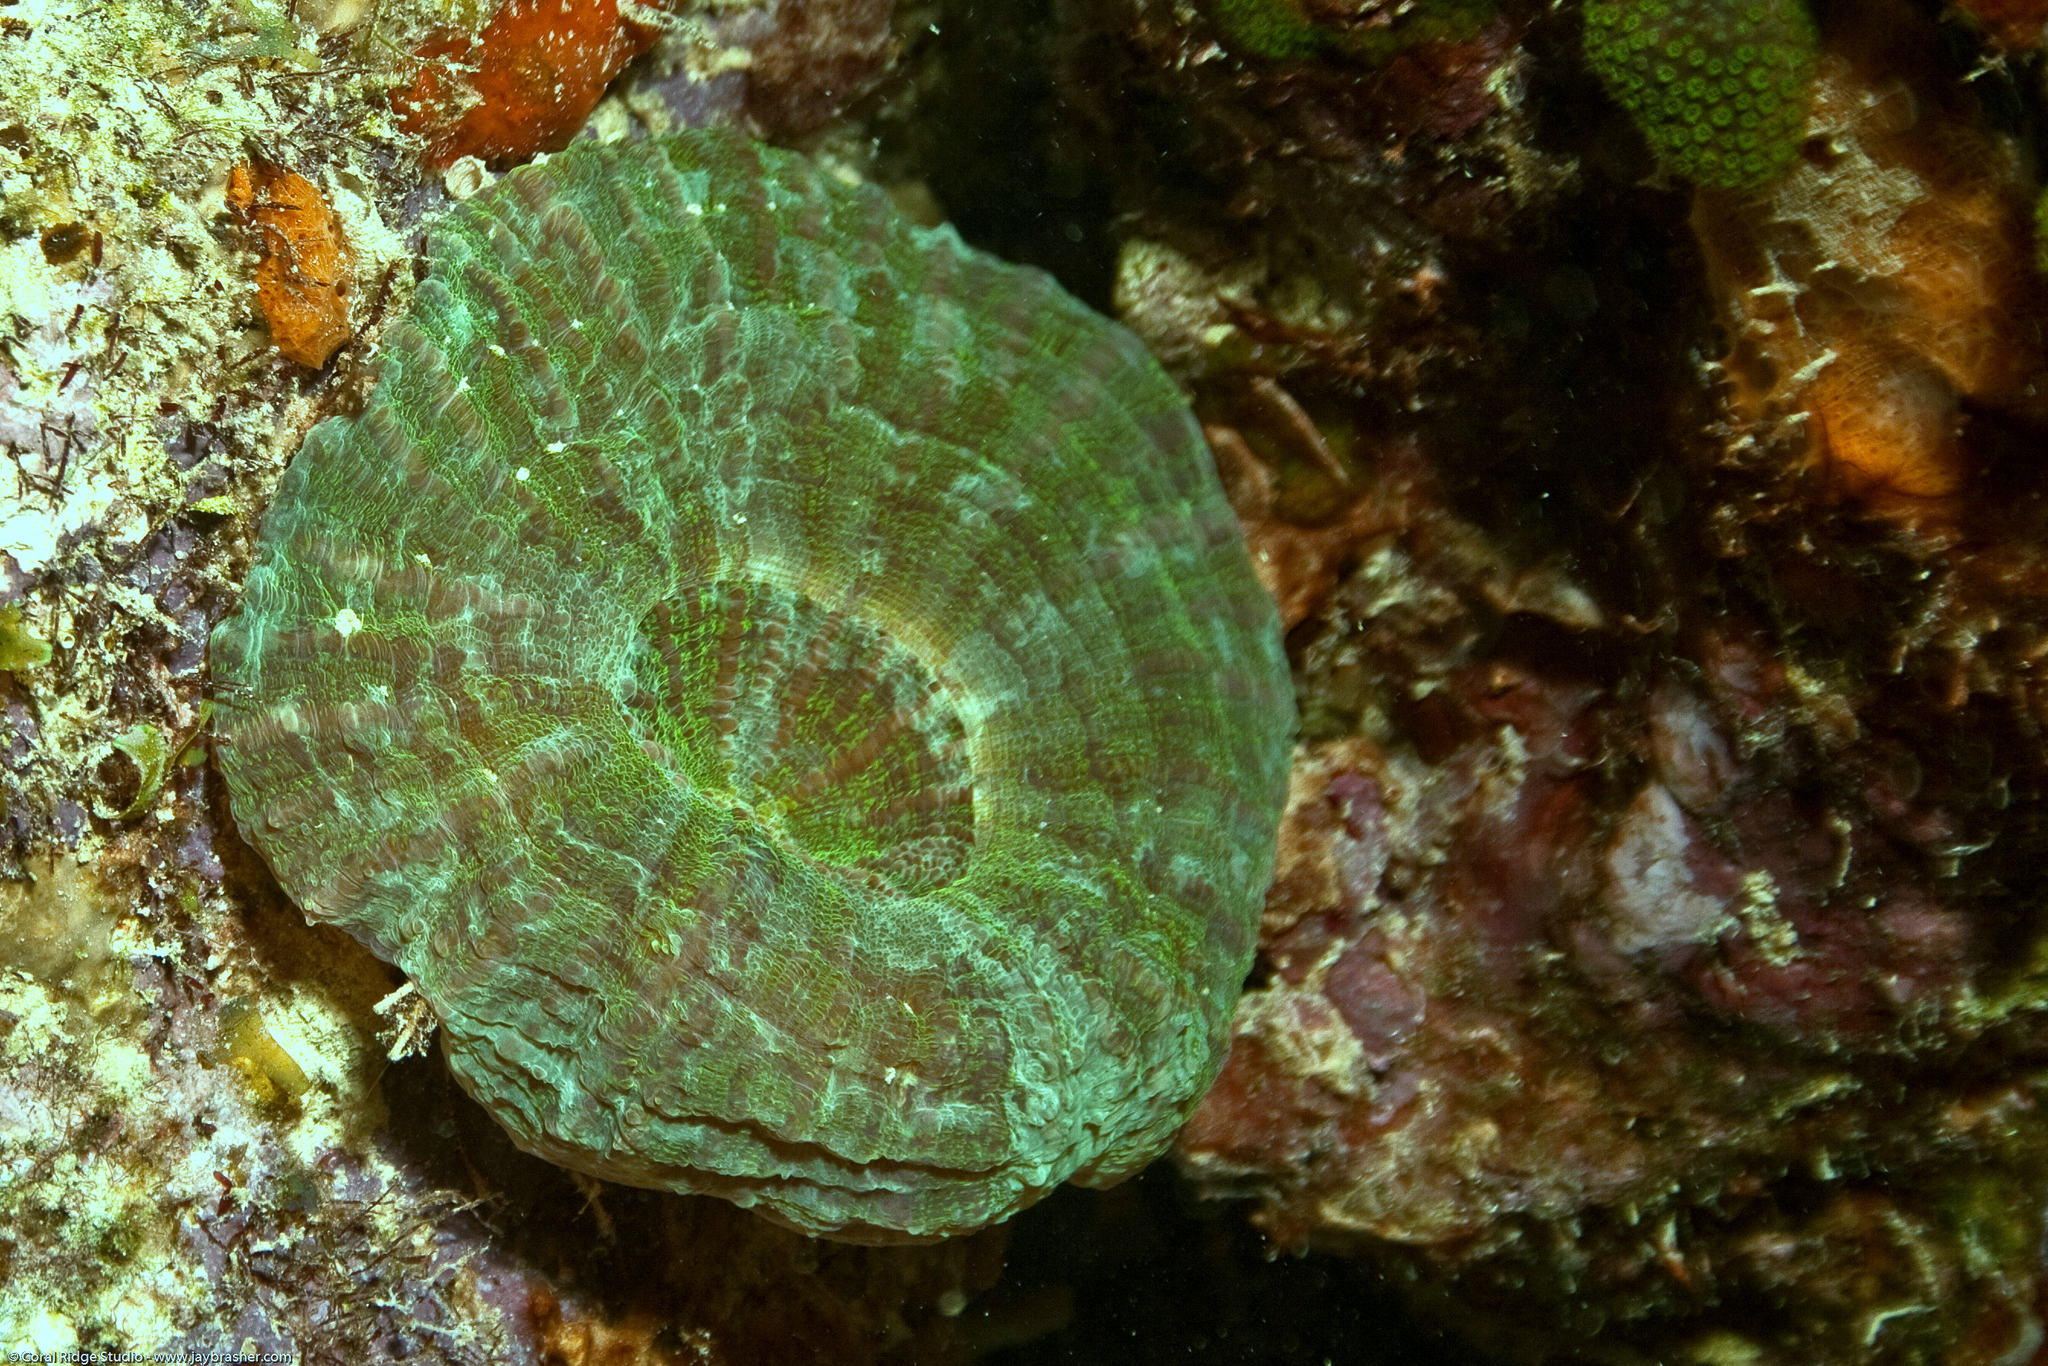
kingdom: Animalia
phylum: Cnidaria
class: Anthozoa
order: Scleractinia
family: Faviidae
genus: Scolymia
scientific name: Scolymia cubensis
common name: Artichoke coral
